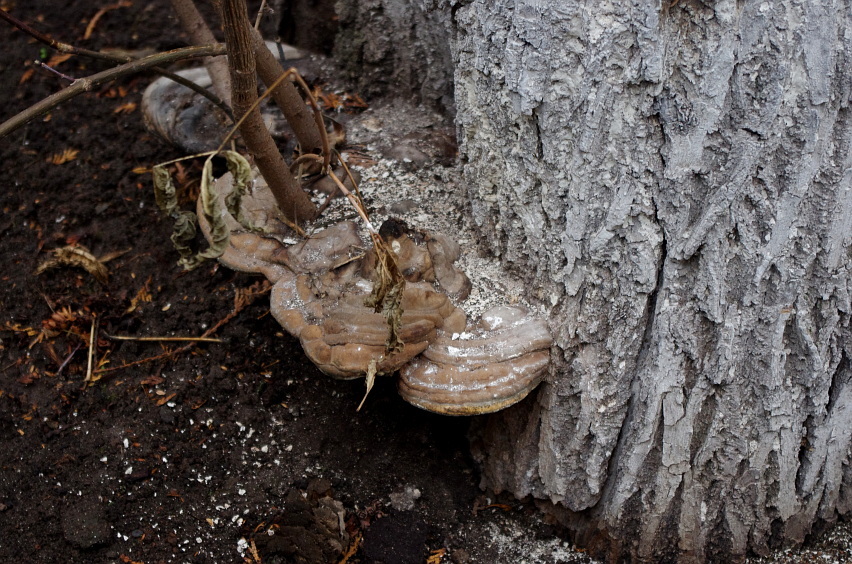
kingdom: Fungi
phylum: Basidiomycota
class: Agaricomycetes
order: Polyporales
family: Polyporaceae
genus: Fomes
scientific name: Fomes fomentarius
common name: Hoof fungus
